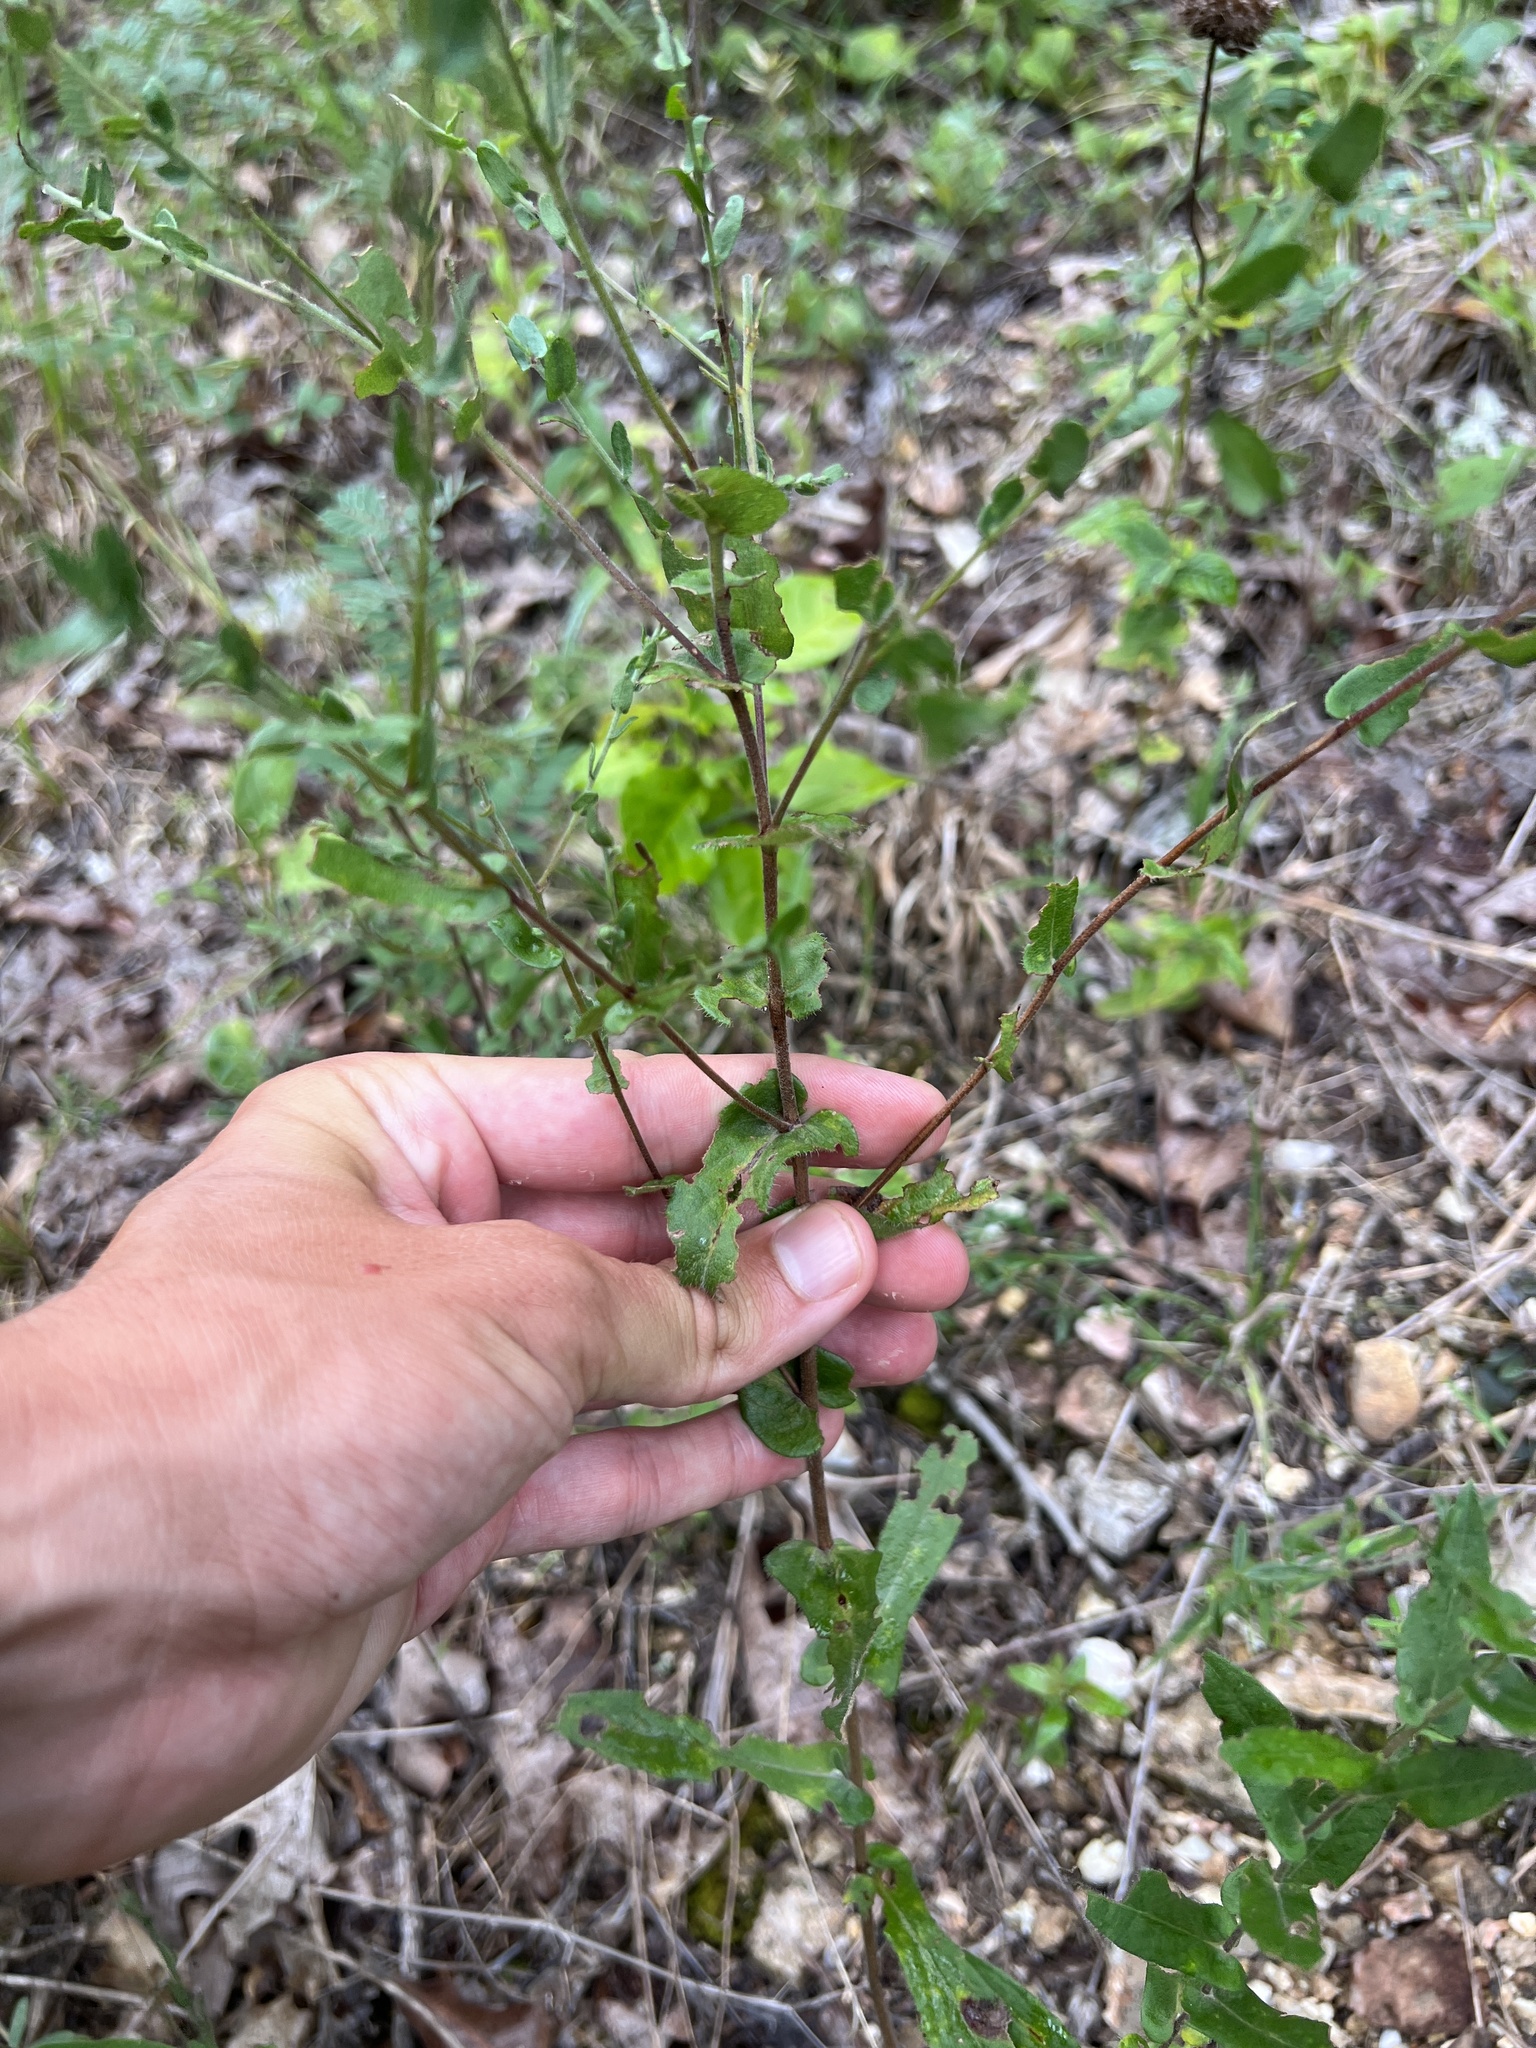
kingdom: Plantae
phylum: Tracheophyta
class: Magnoliopsida
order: Asterales
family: Asteraceae
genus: Symphyotrichum
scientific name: Symphyotrichum patens
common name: Late purple aster
